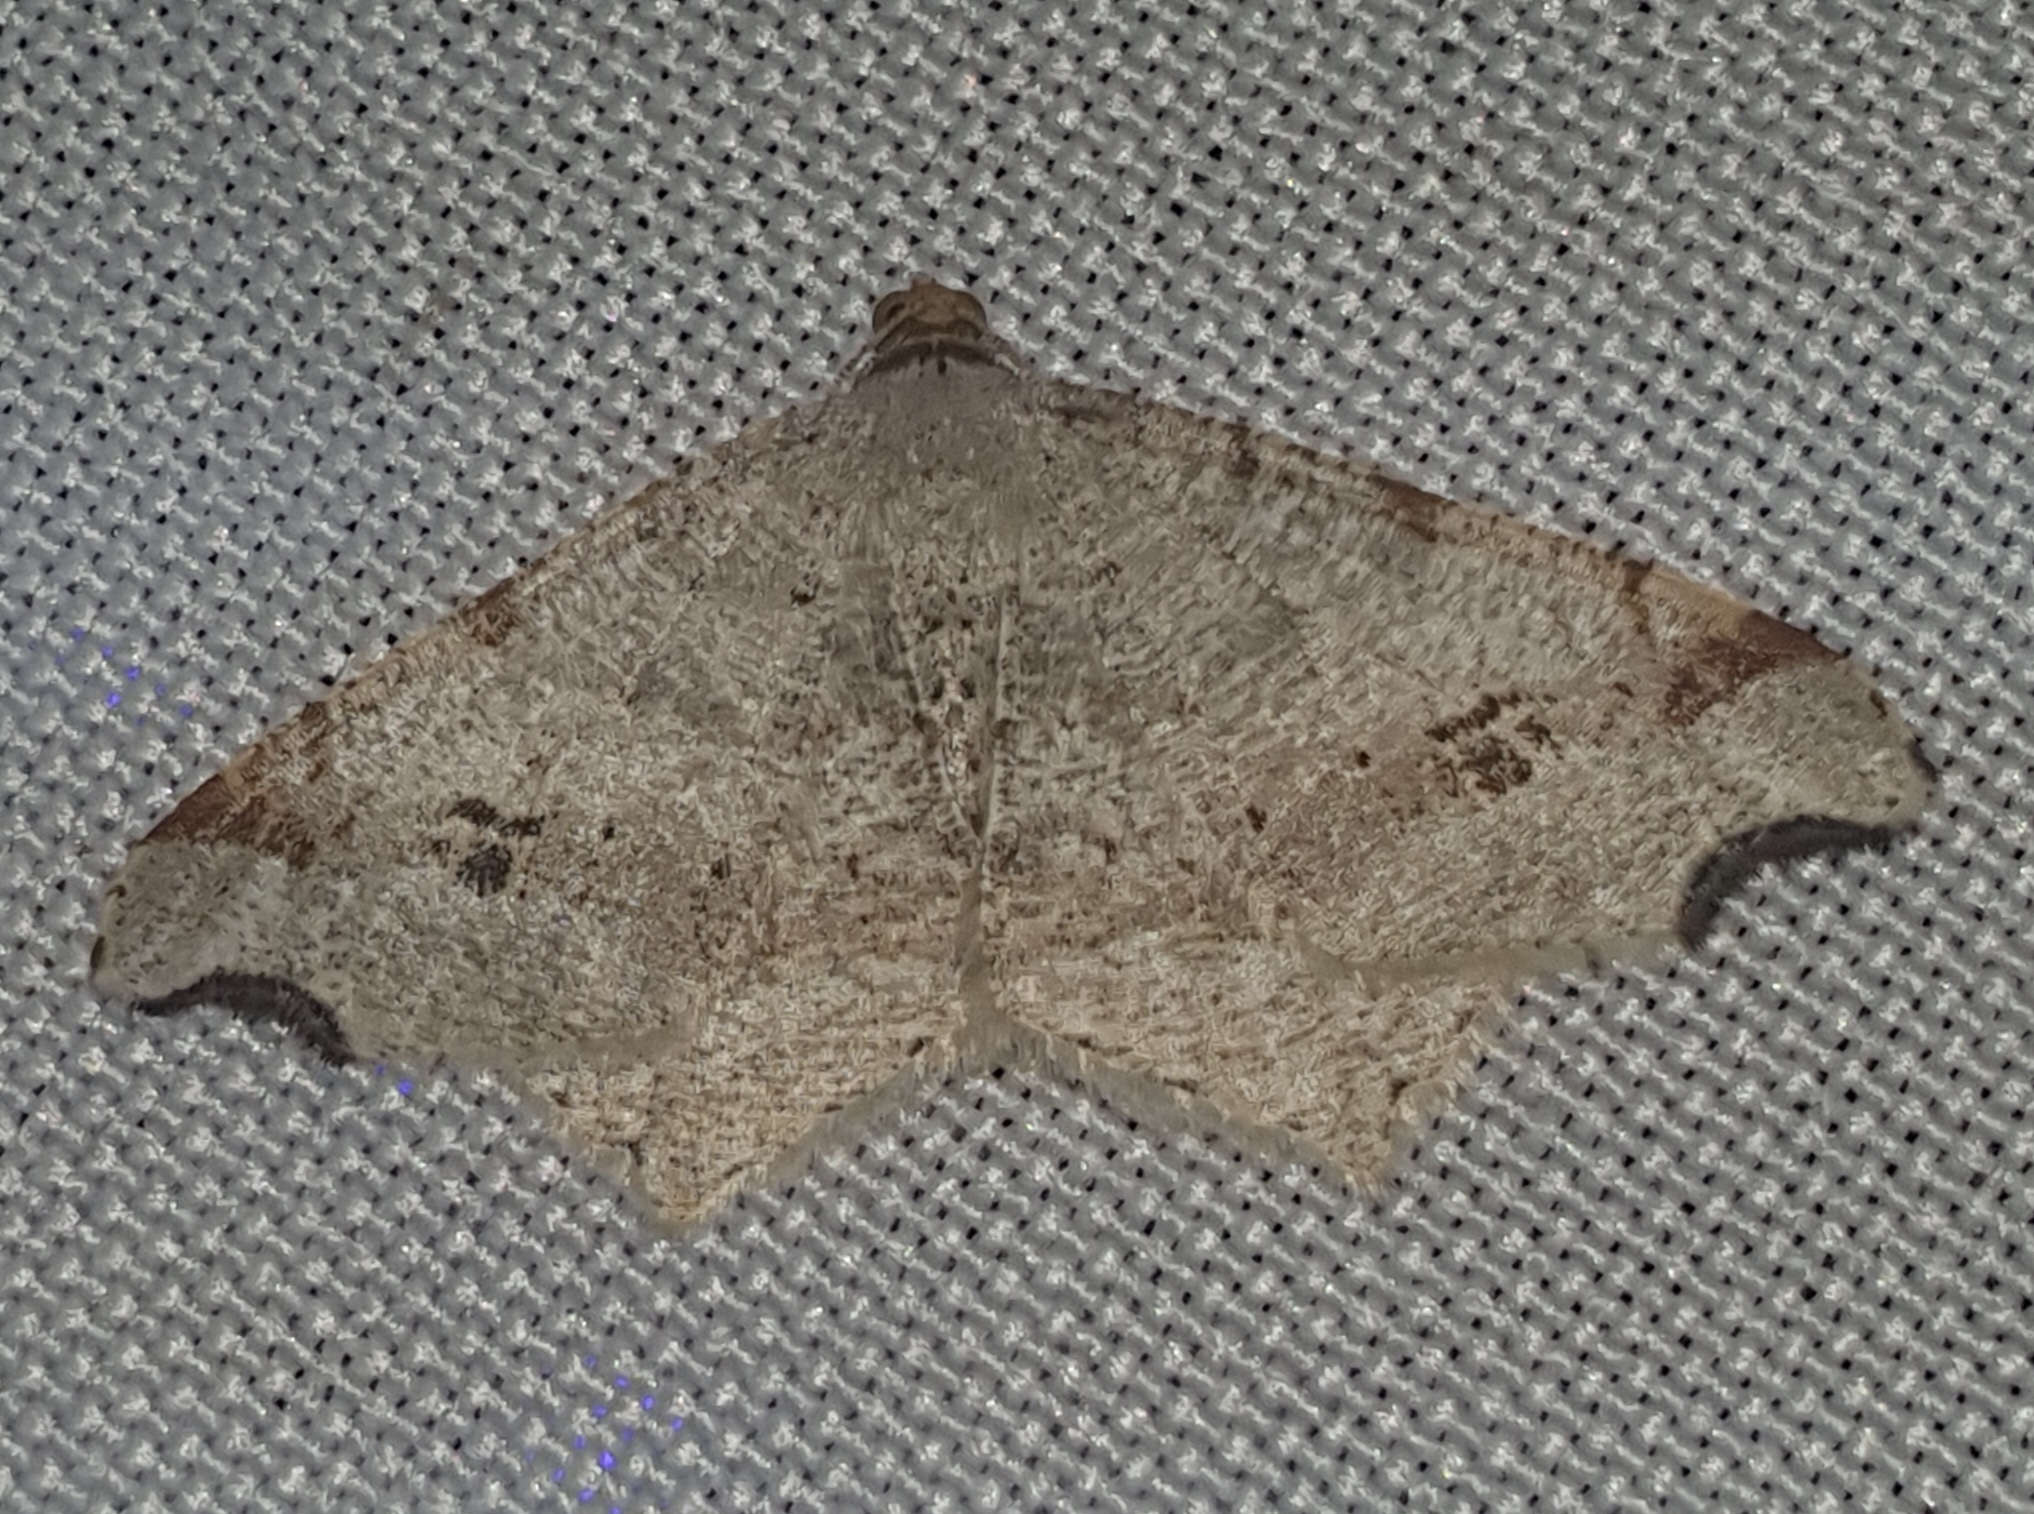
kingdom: Animalia
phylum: Arthropoda
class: Insecta
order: Lepidoptera
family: Geometridae
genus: Macaria
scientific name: Macaria alternata
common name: Sharp-angled peacock
